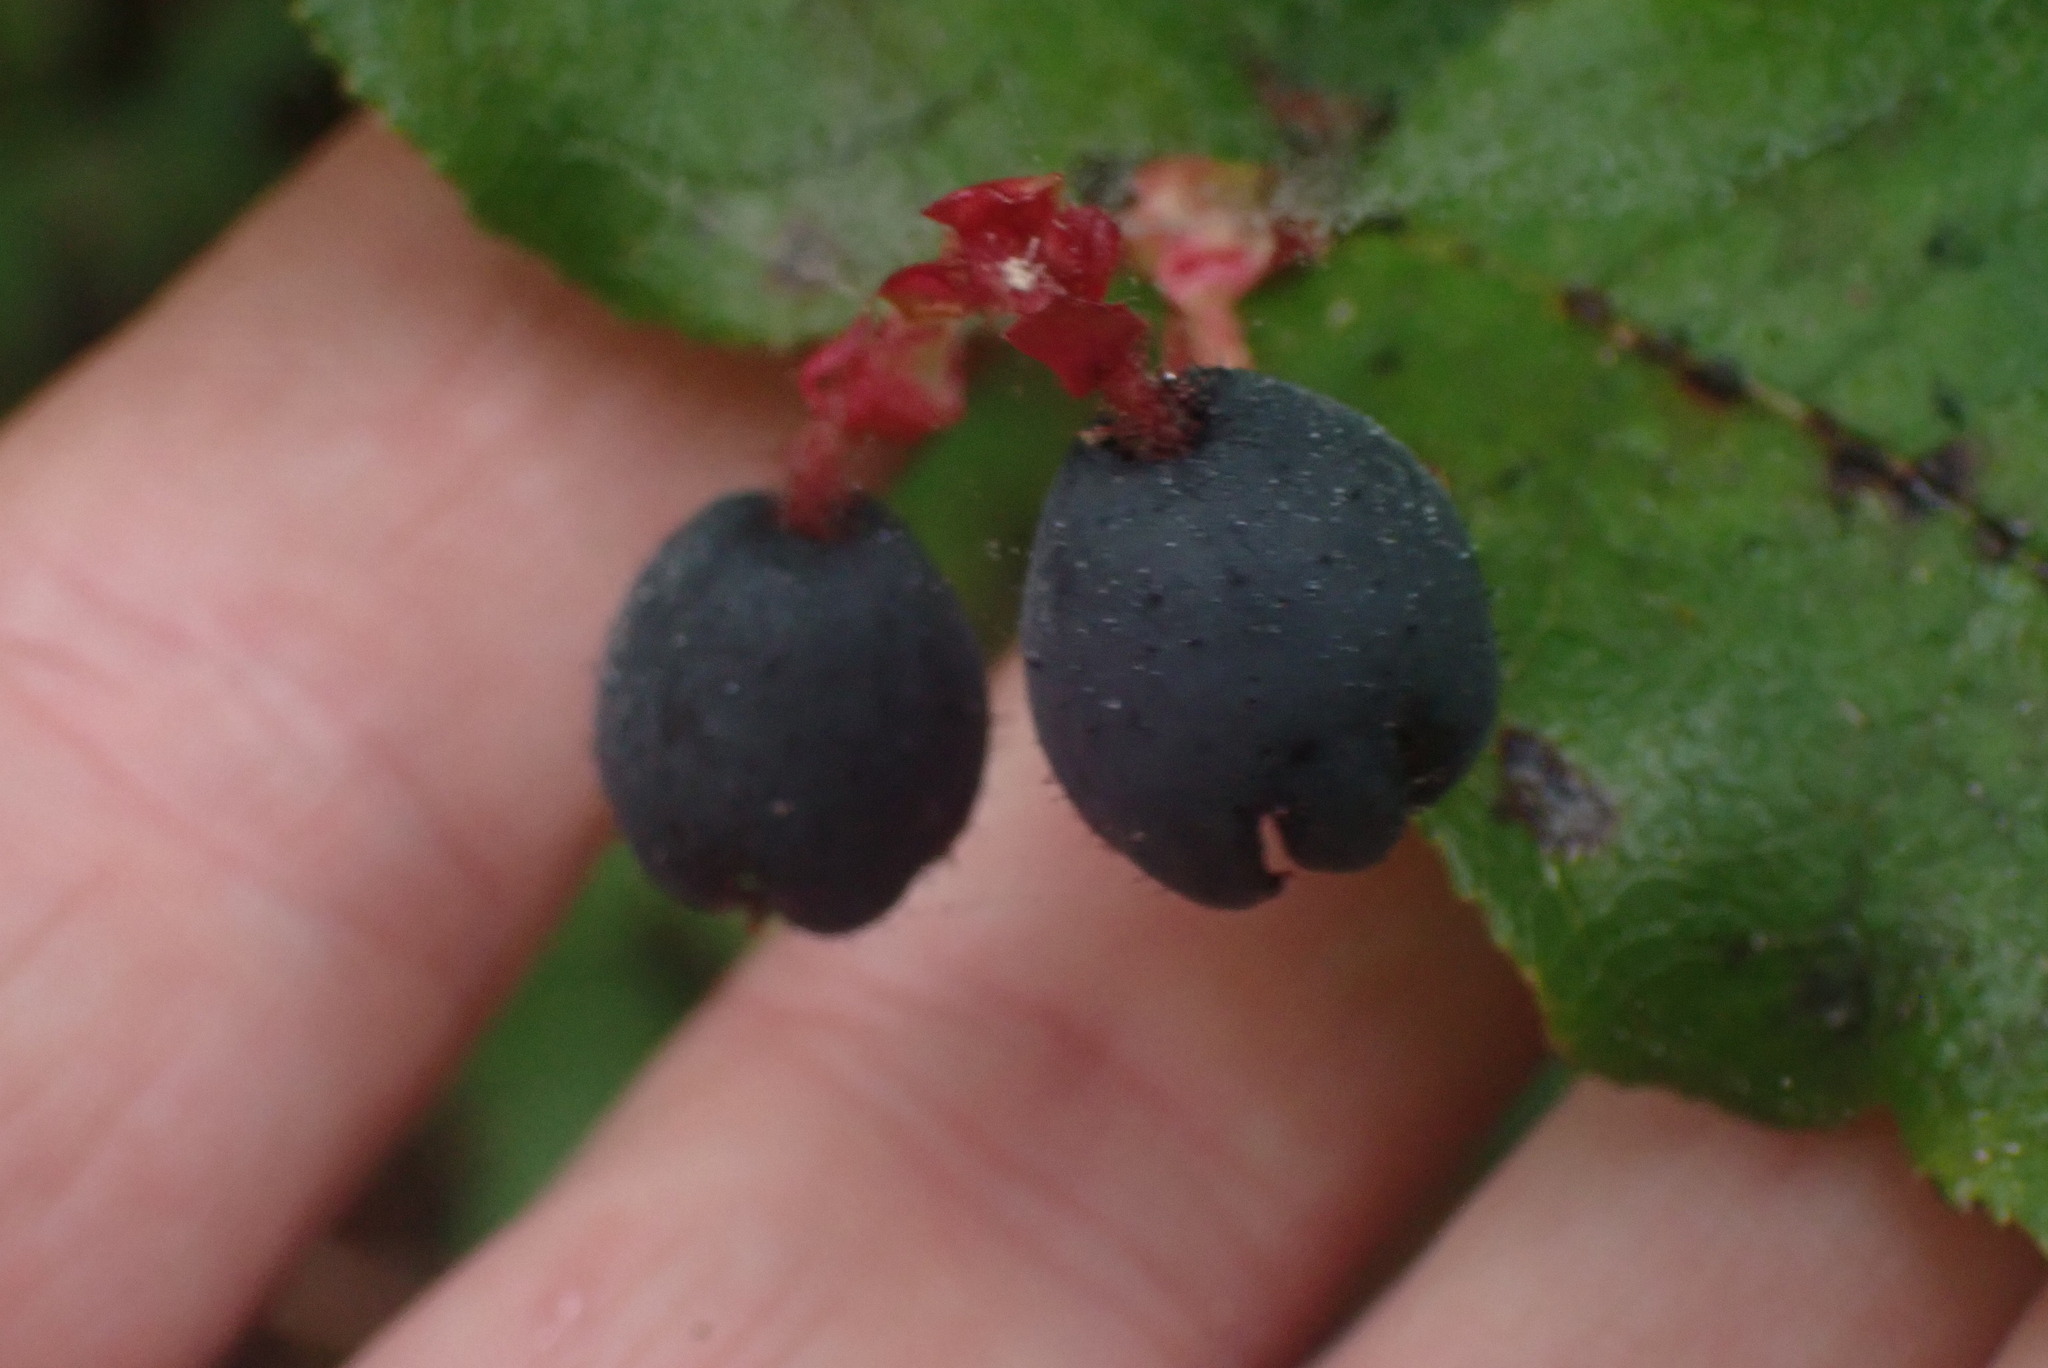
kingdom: Plantae
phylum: Tracheophyta
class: Magnoliopsida
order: Ericales
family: Ericaceae
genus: Gaultheria
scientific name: Gaultheria shallon
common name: Shallon
